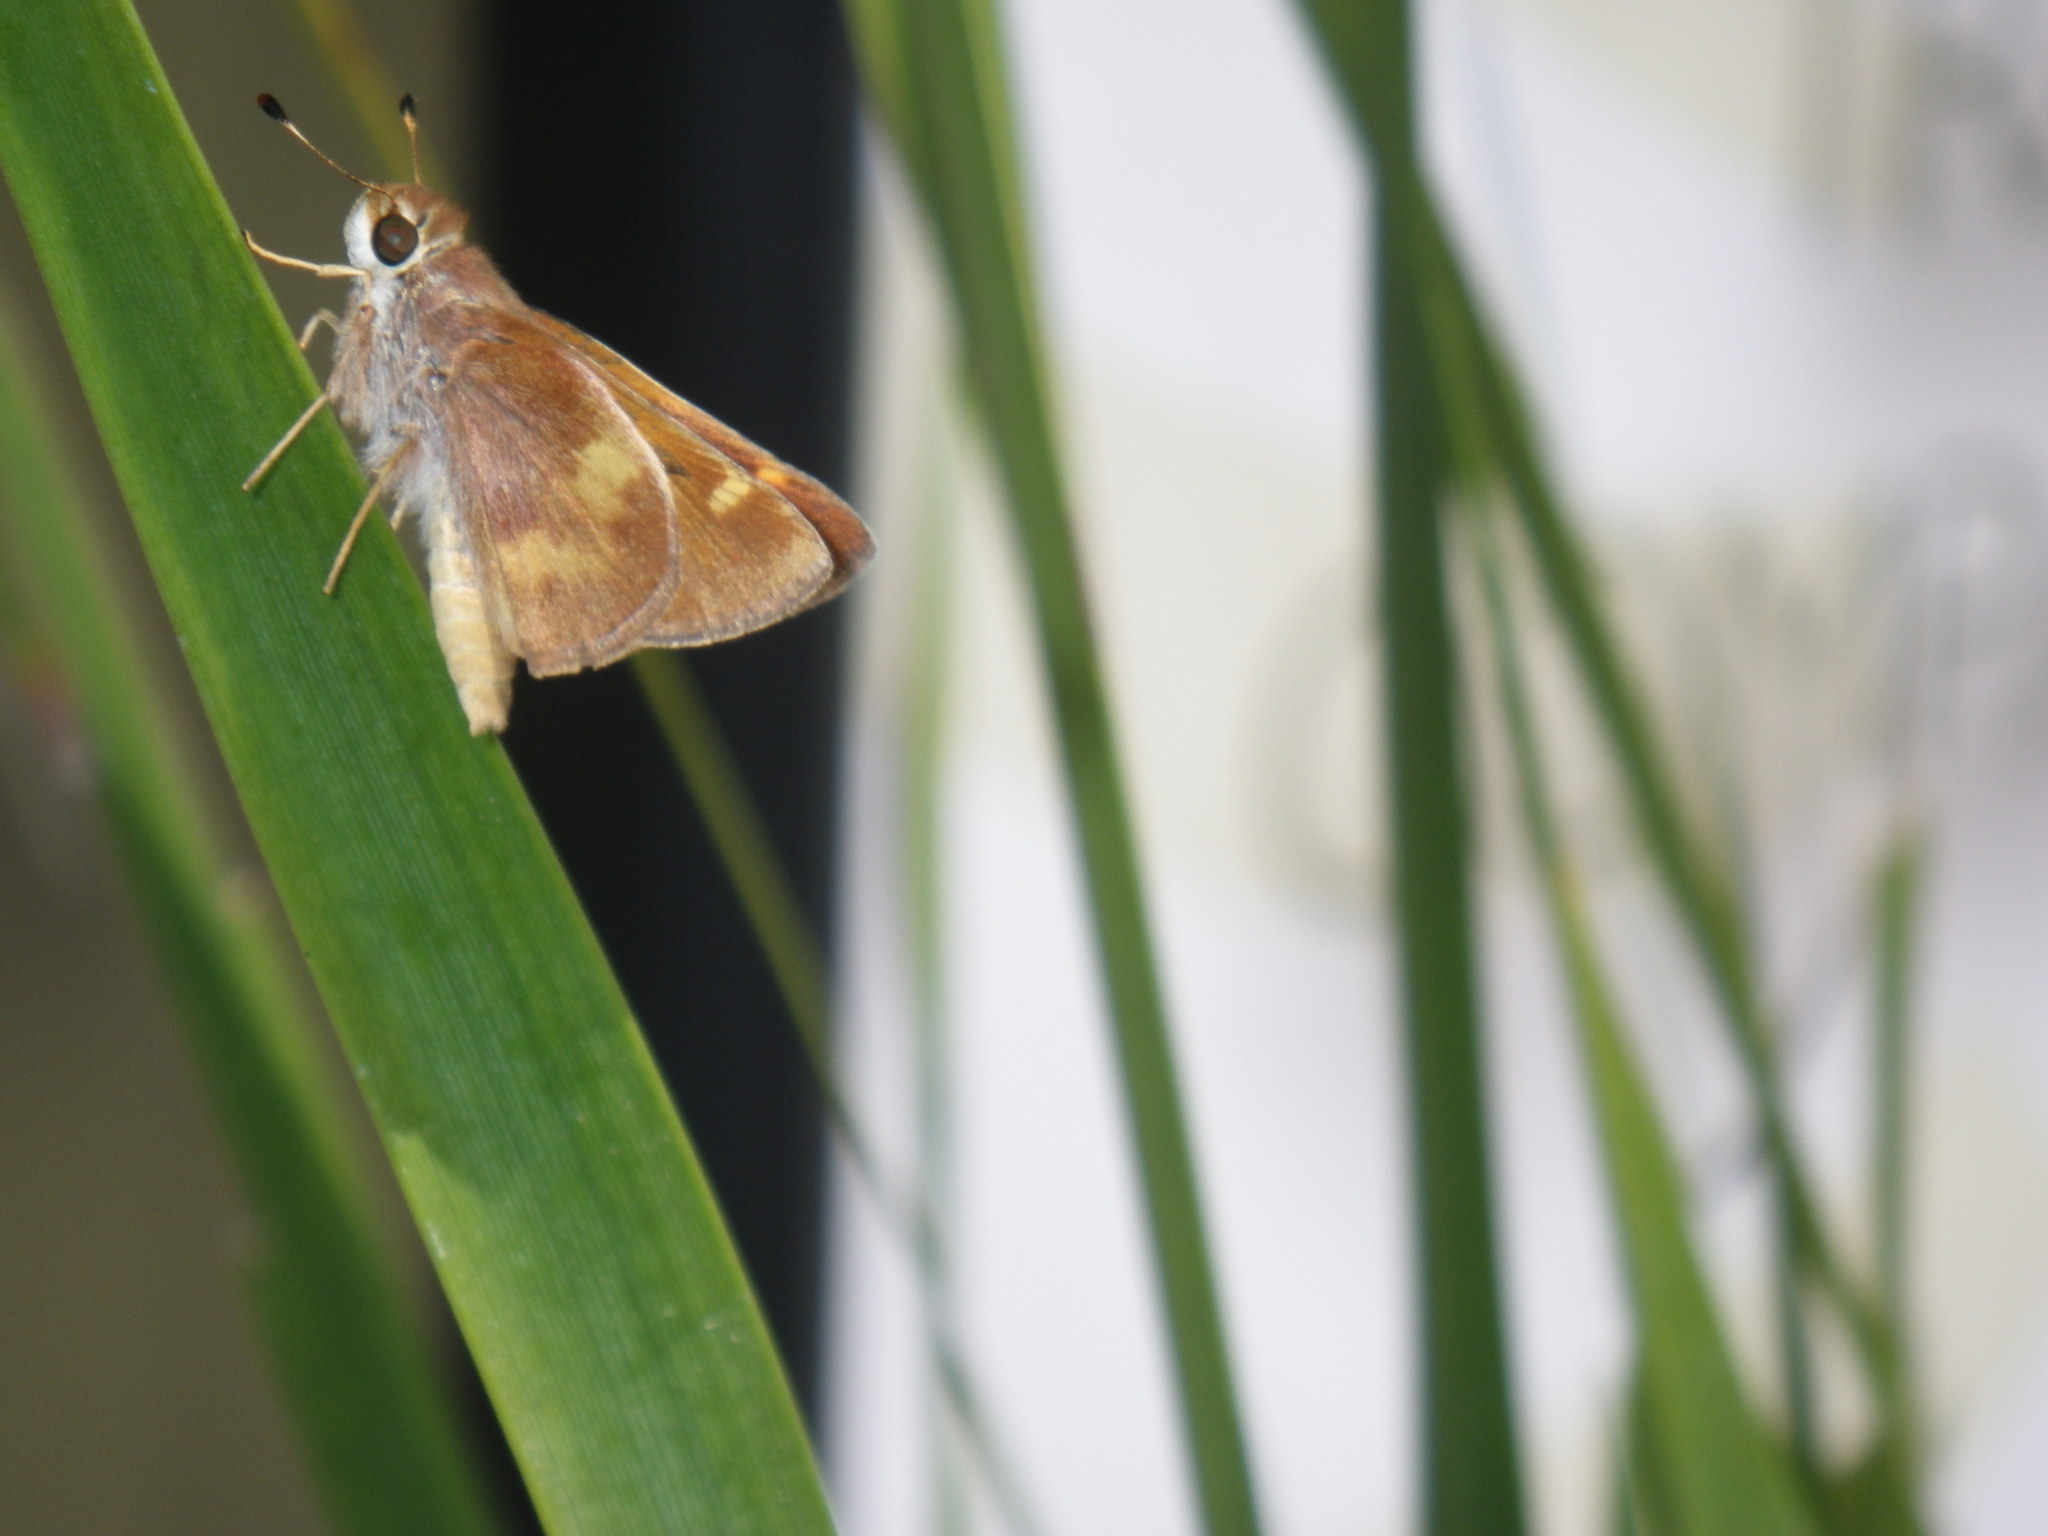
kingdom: Animalia
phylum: Arthropoda
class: Insecta
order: Lepidoptera
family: Hesperiidae
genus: Lon
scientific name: Lon melane
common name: Umber skipper
